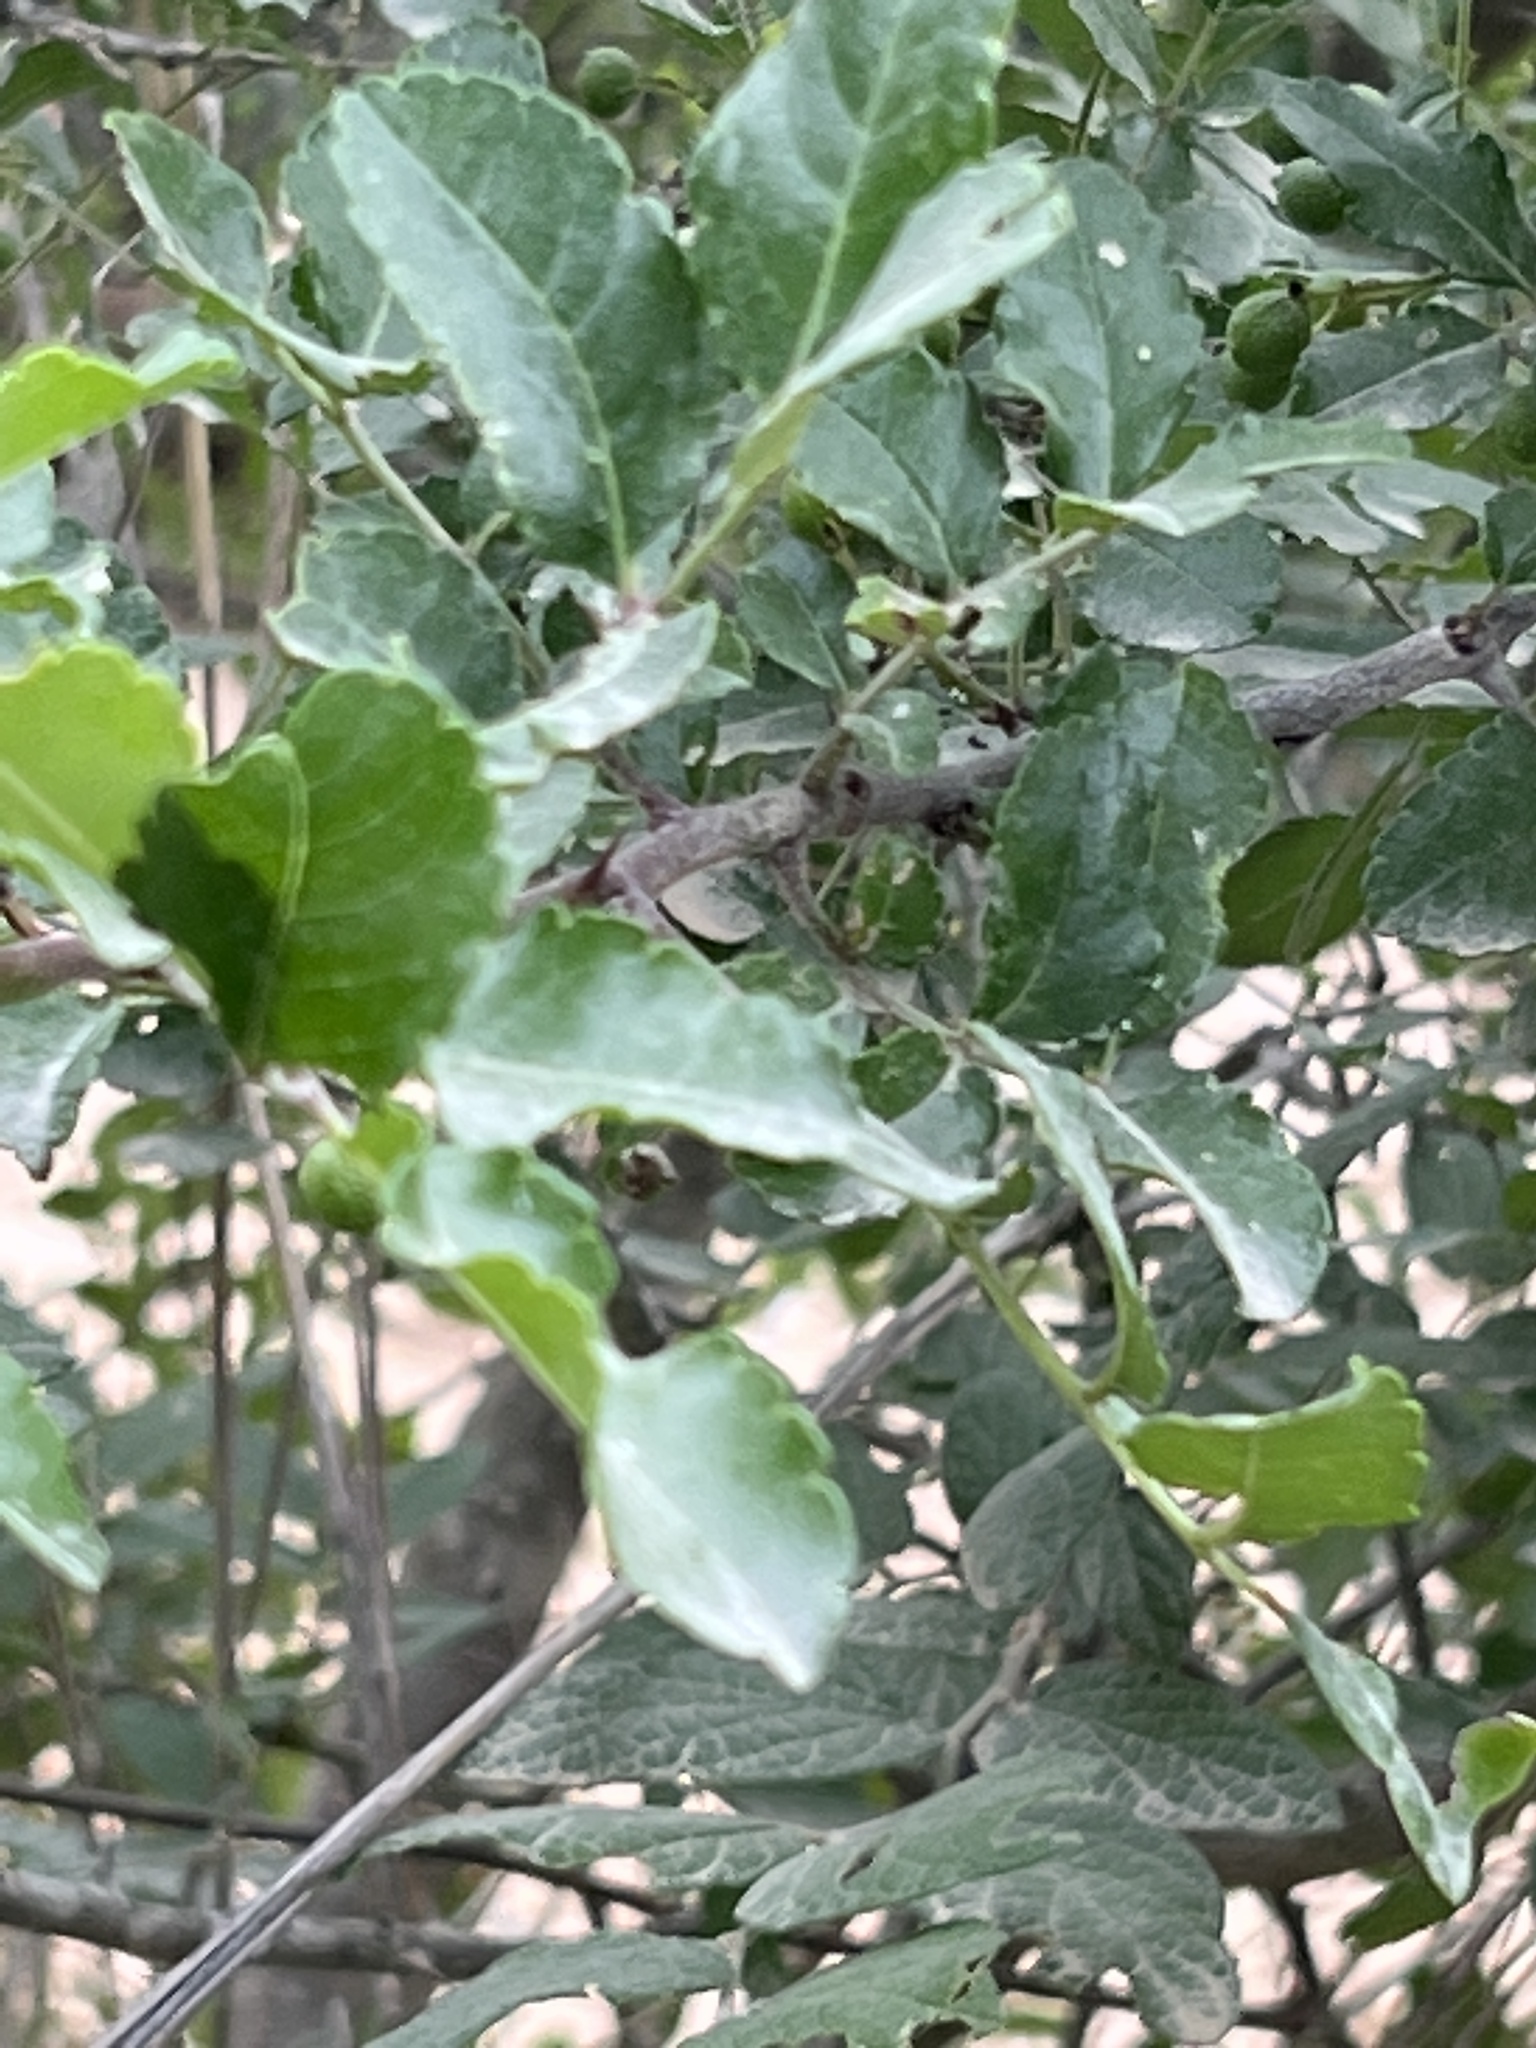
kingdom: Plantae
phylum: Tracheophyta
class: Magnoliopsida
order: Sapindales
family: Rutaceae
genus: Zanthoxylum
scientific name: Zanthoxylum clava-herculis
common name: Hercules'-club
